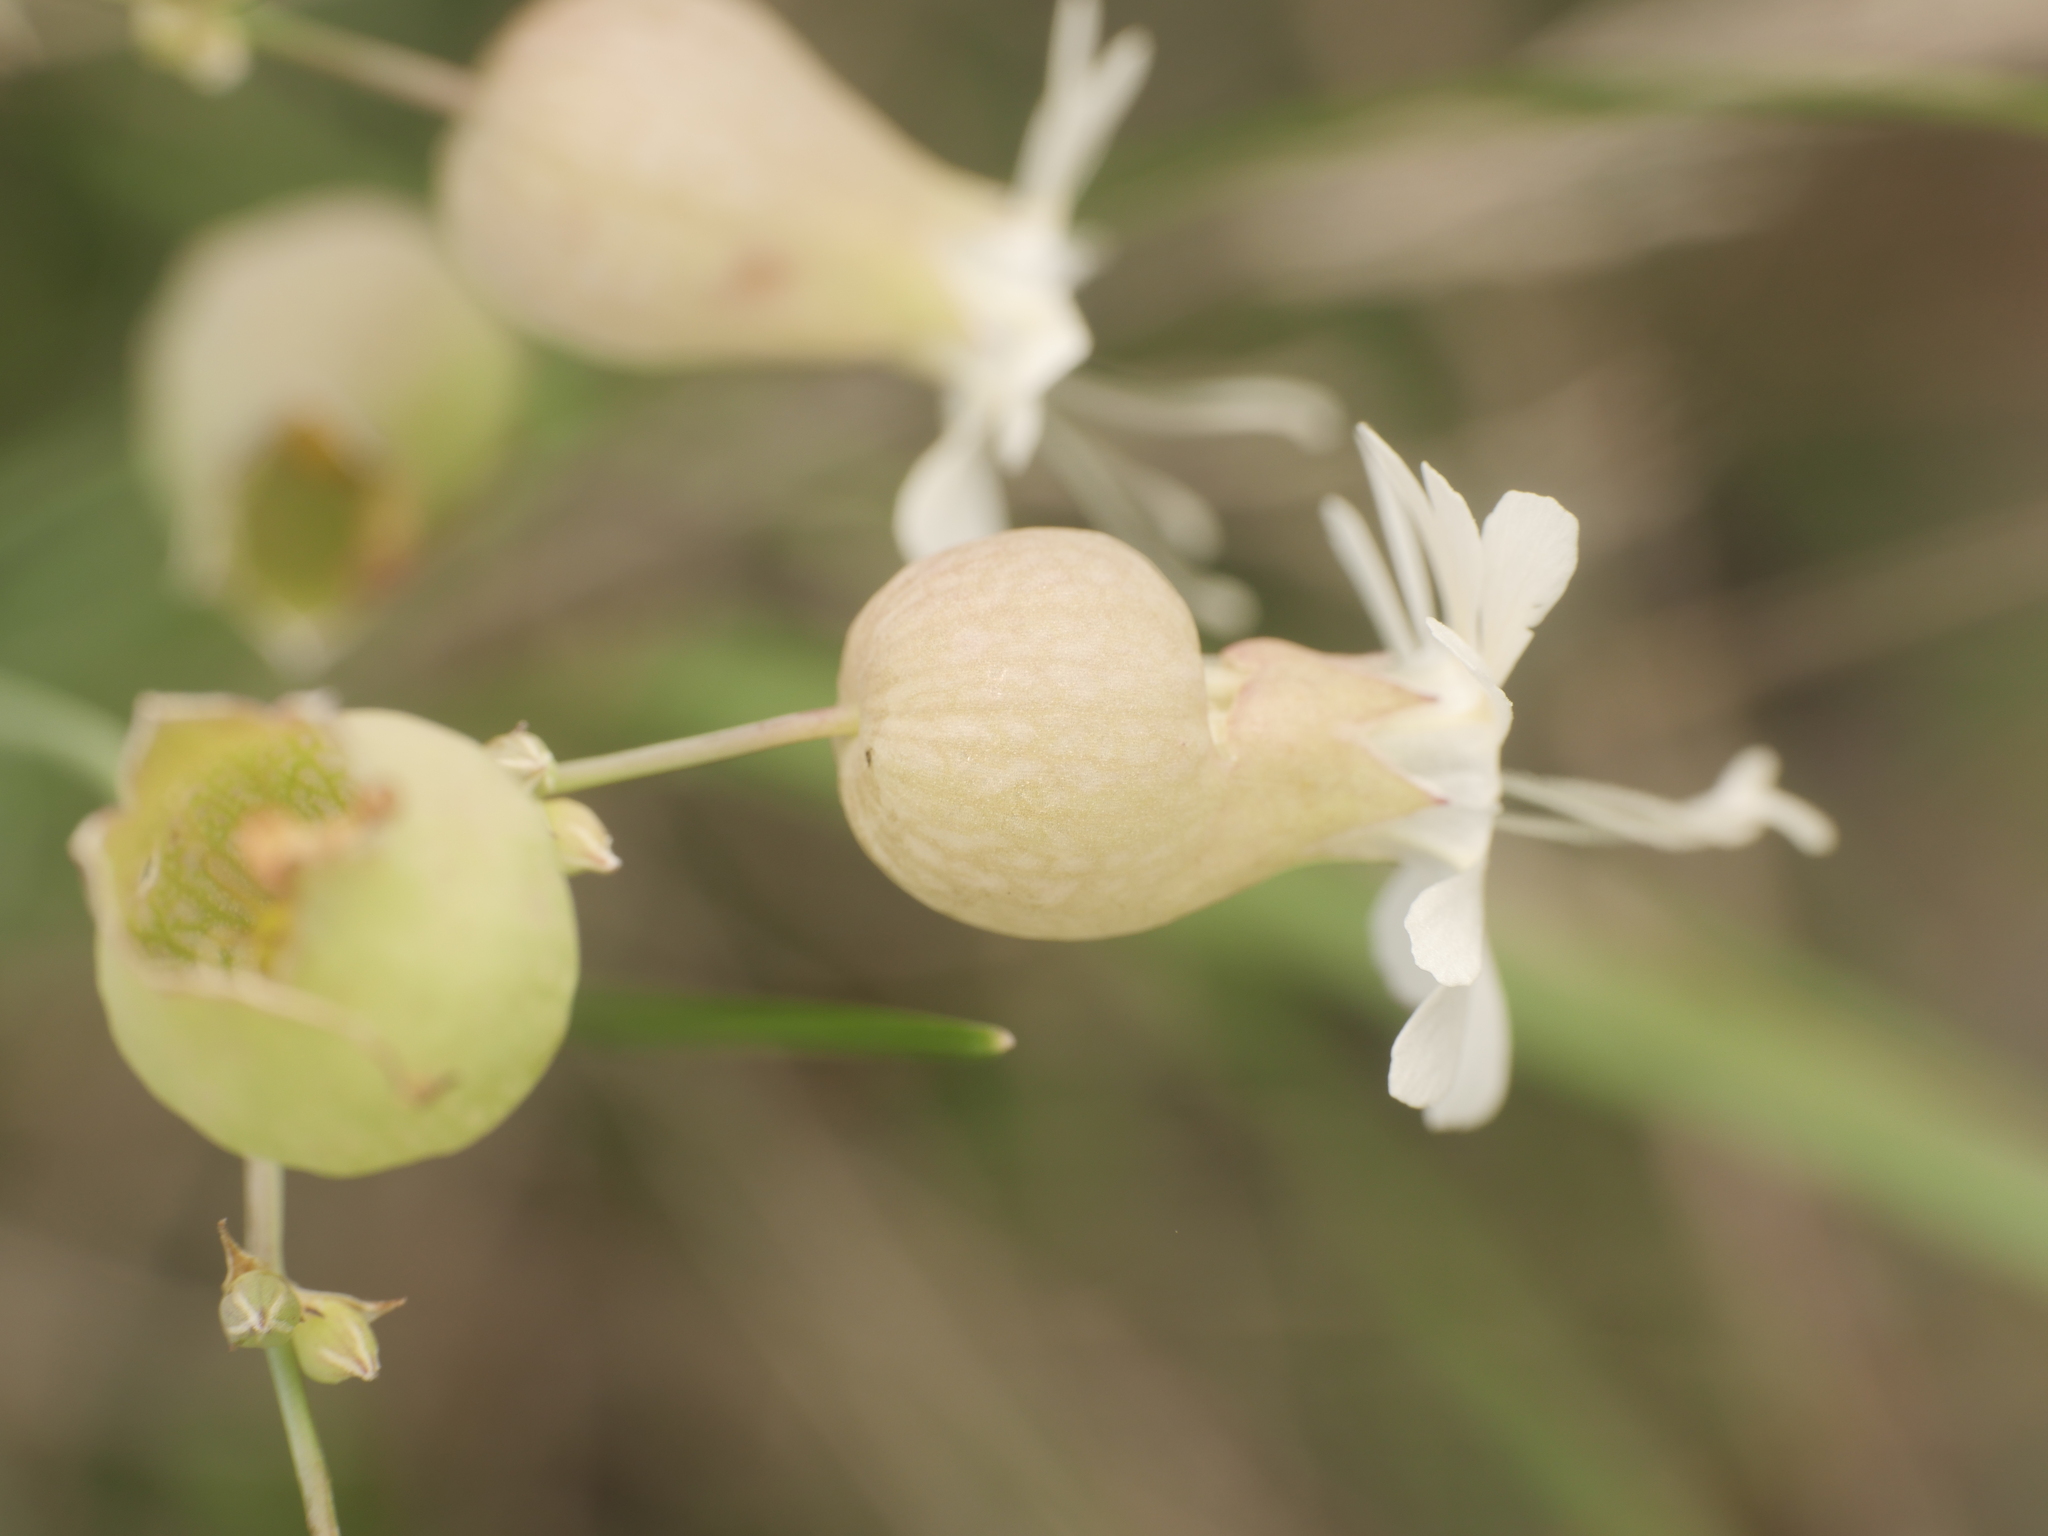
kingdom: Plantae
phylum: Tracheophyta
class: Magnoliopsida
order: Caryophyllales
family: Caryophyllaceae
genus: Silene
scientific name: Silene vulgaris
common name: Bladder campion
